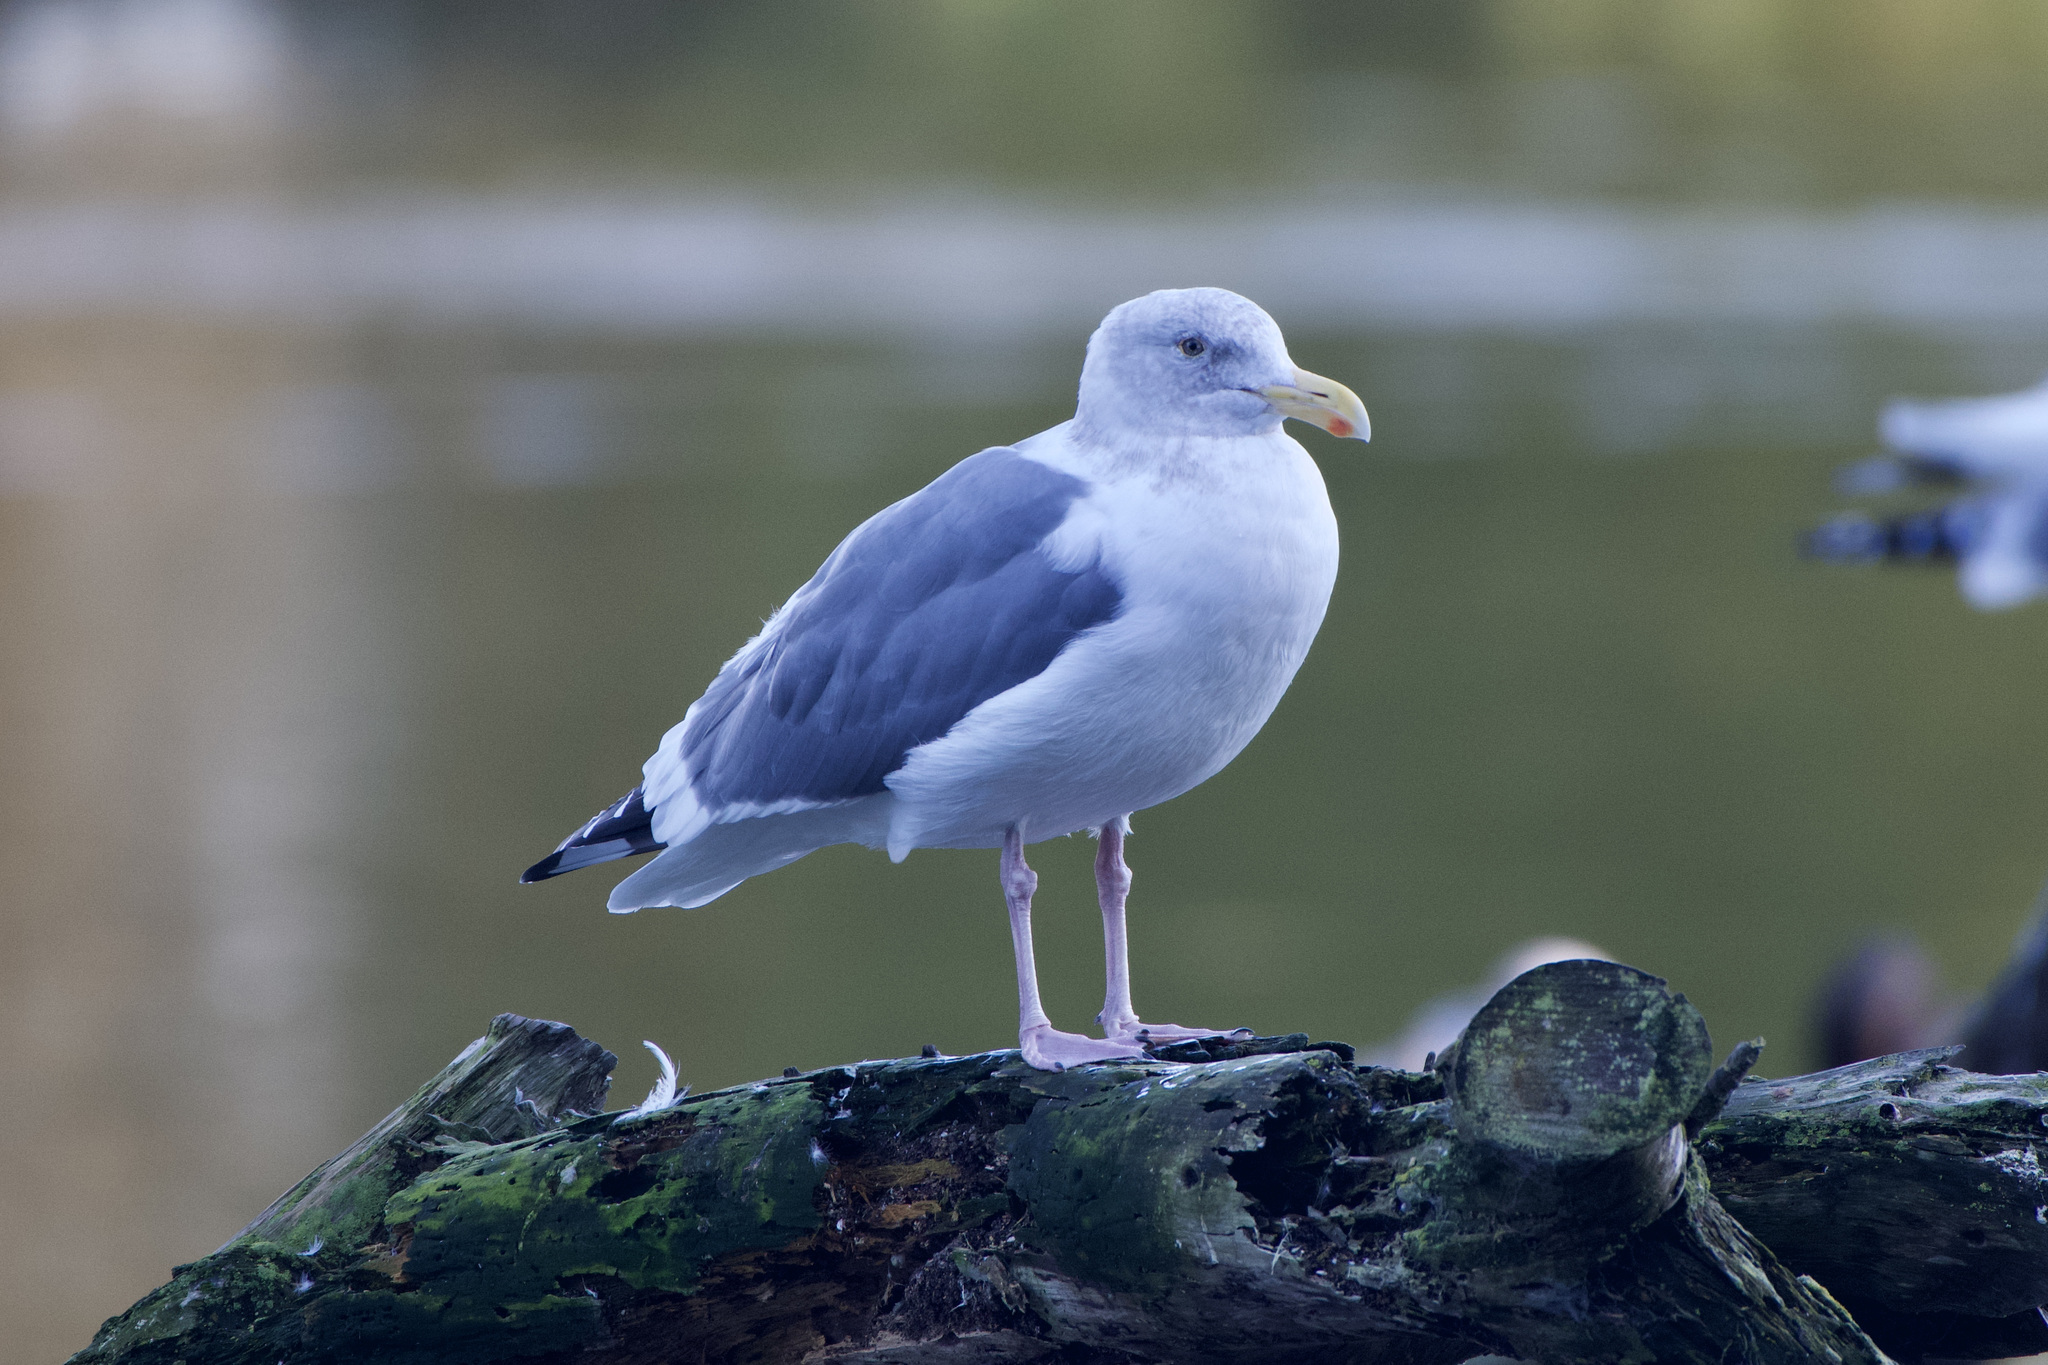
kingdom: Animalia
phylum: Chordata
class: Aves
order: Charadriiformes
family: Laridae
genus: Larus
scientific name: Larus
